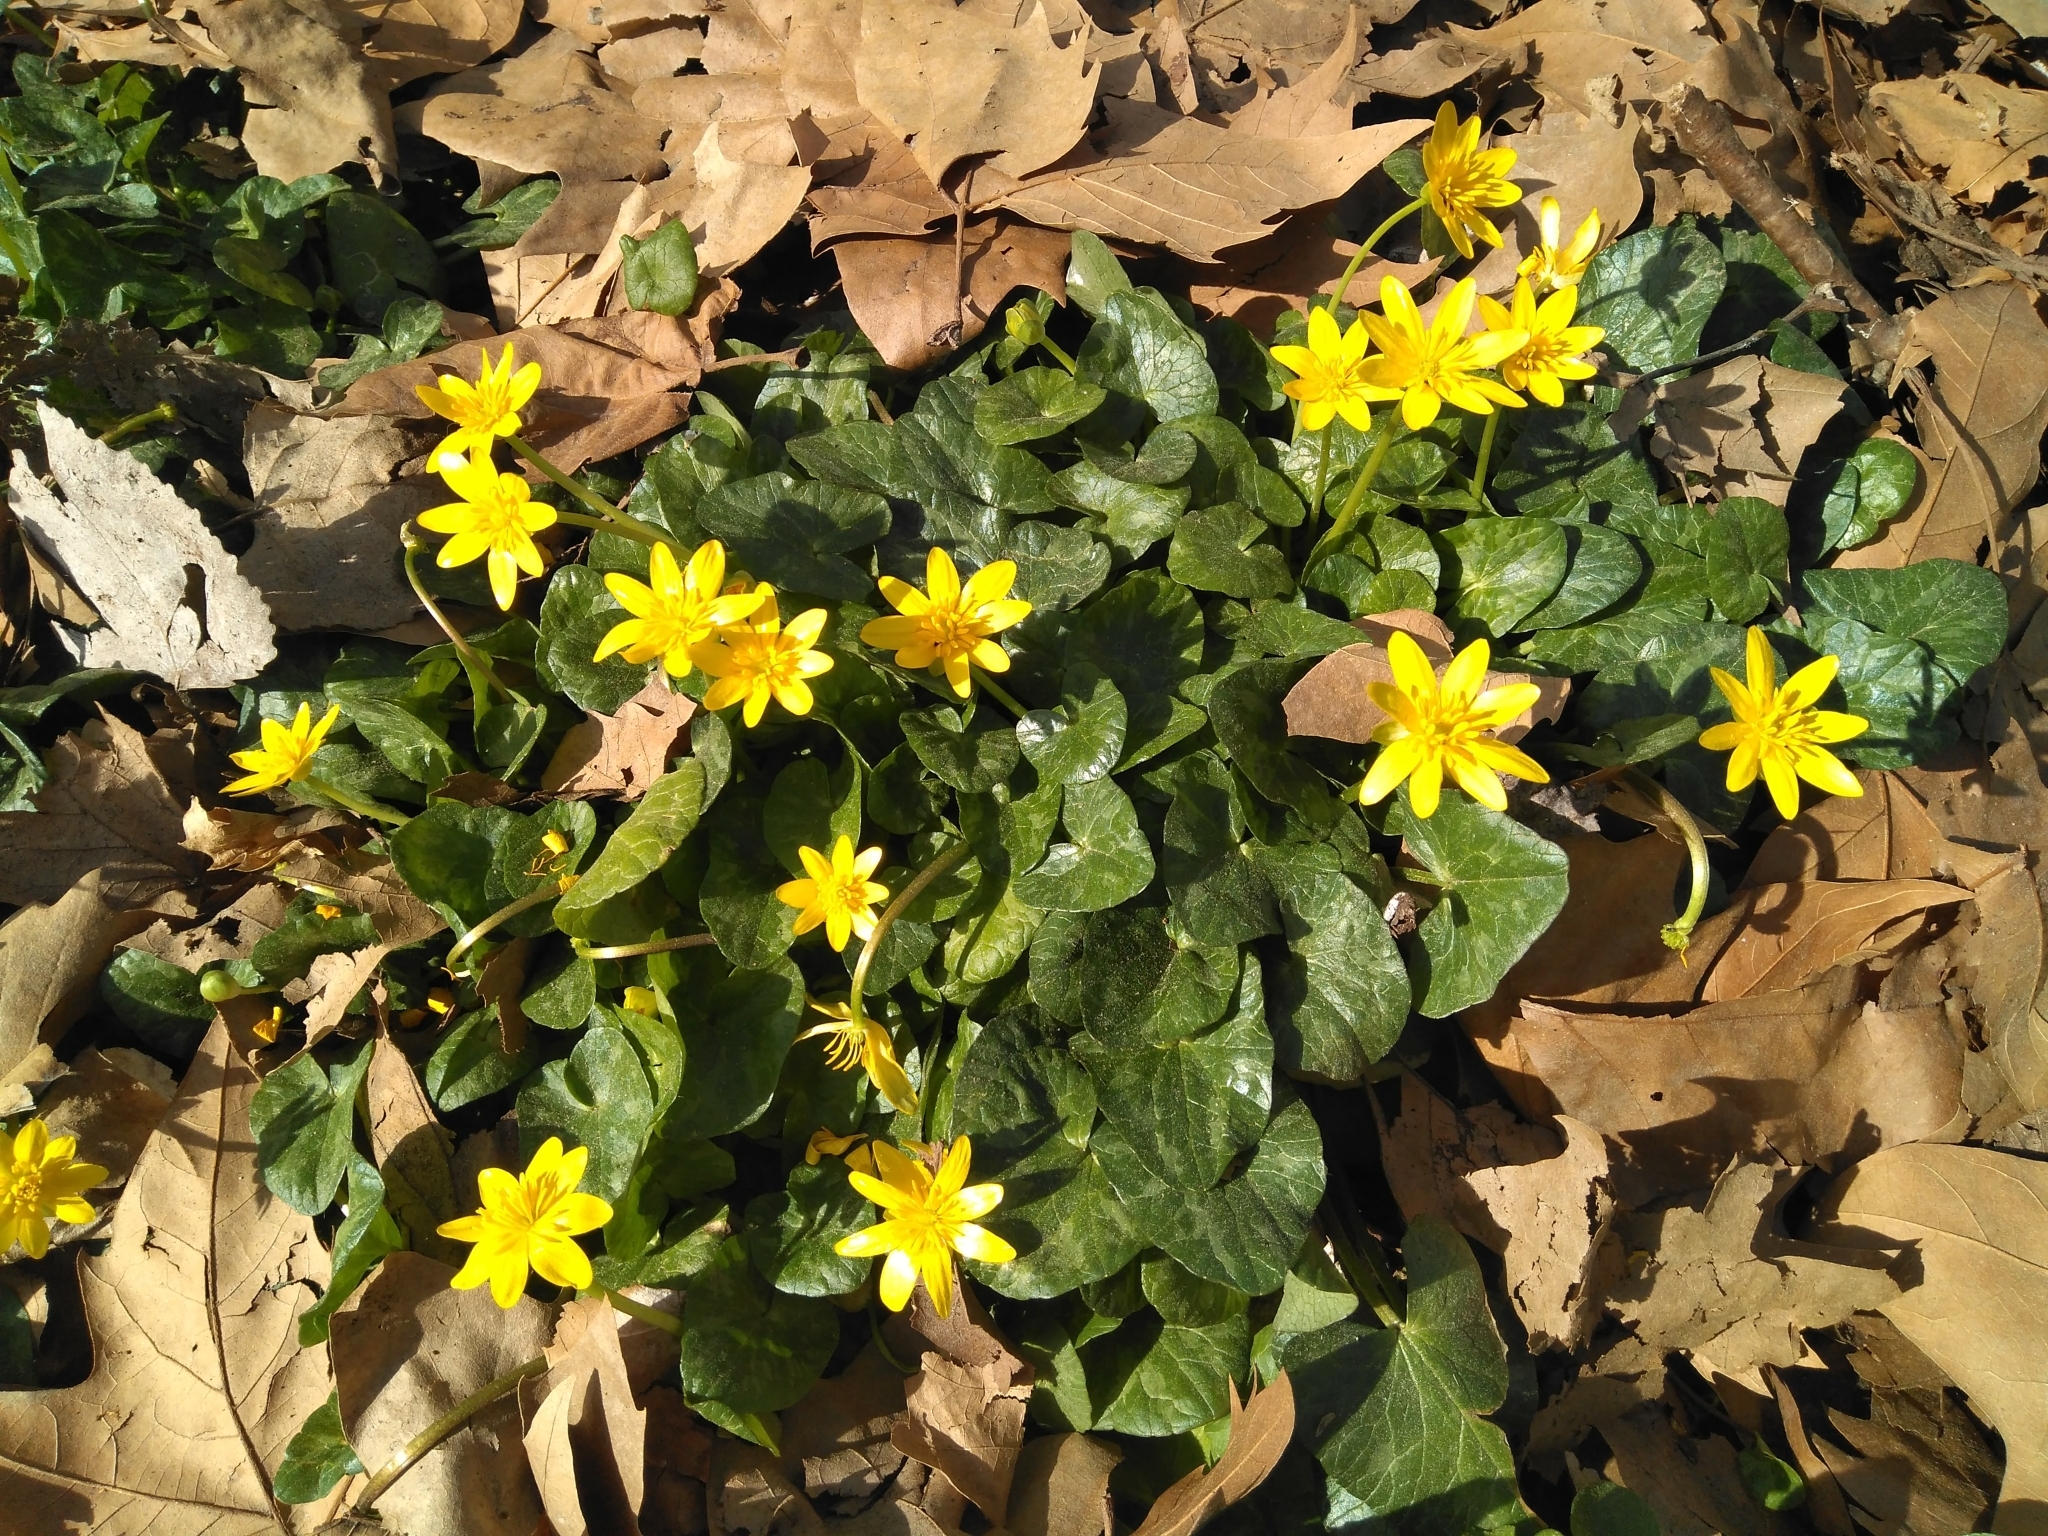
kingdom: Plantae
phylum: Tracheophyta
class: Magnoliopsida
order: Ranunculales
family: Ranunculaceae
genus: Ficaria
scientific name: Ficaria verna
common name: Lesser celandine
